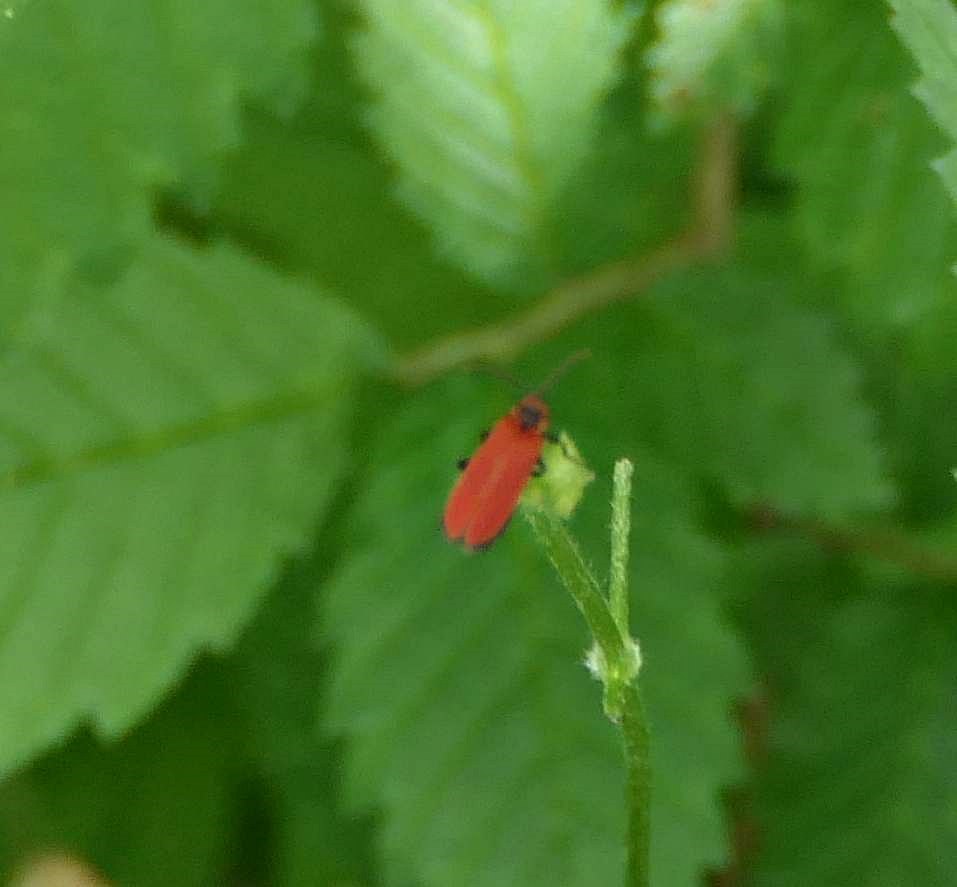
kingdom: Animalia
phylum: Arthropoda
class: Insecta
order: Coleoptera
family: Lycidae
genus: Dictyoptera
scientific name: Dictyoptera aurora
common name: Golden net-winged beetle
